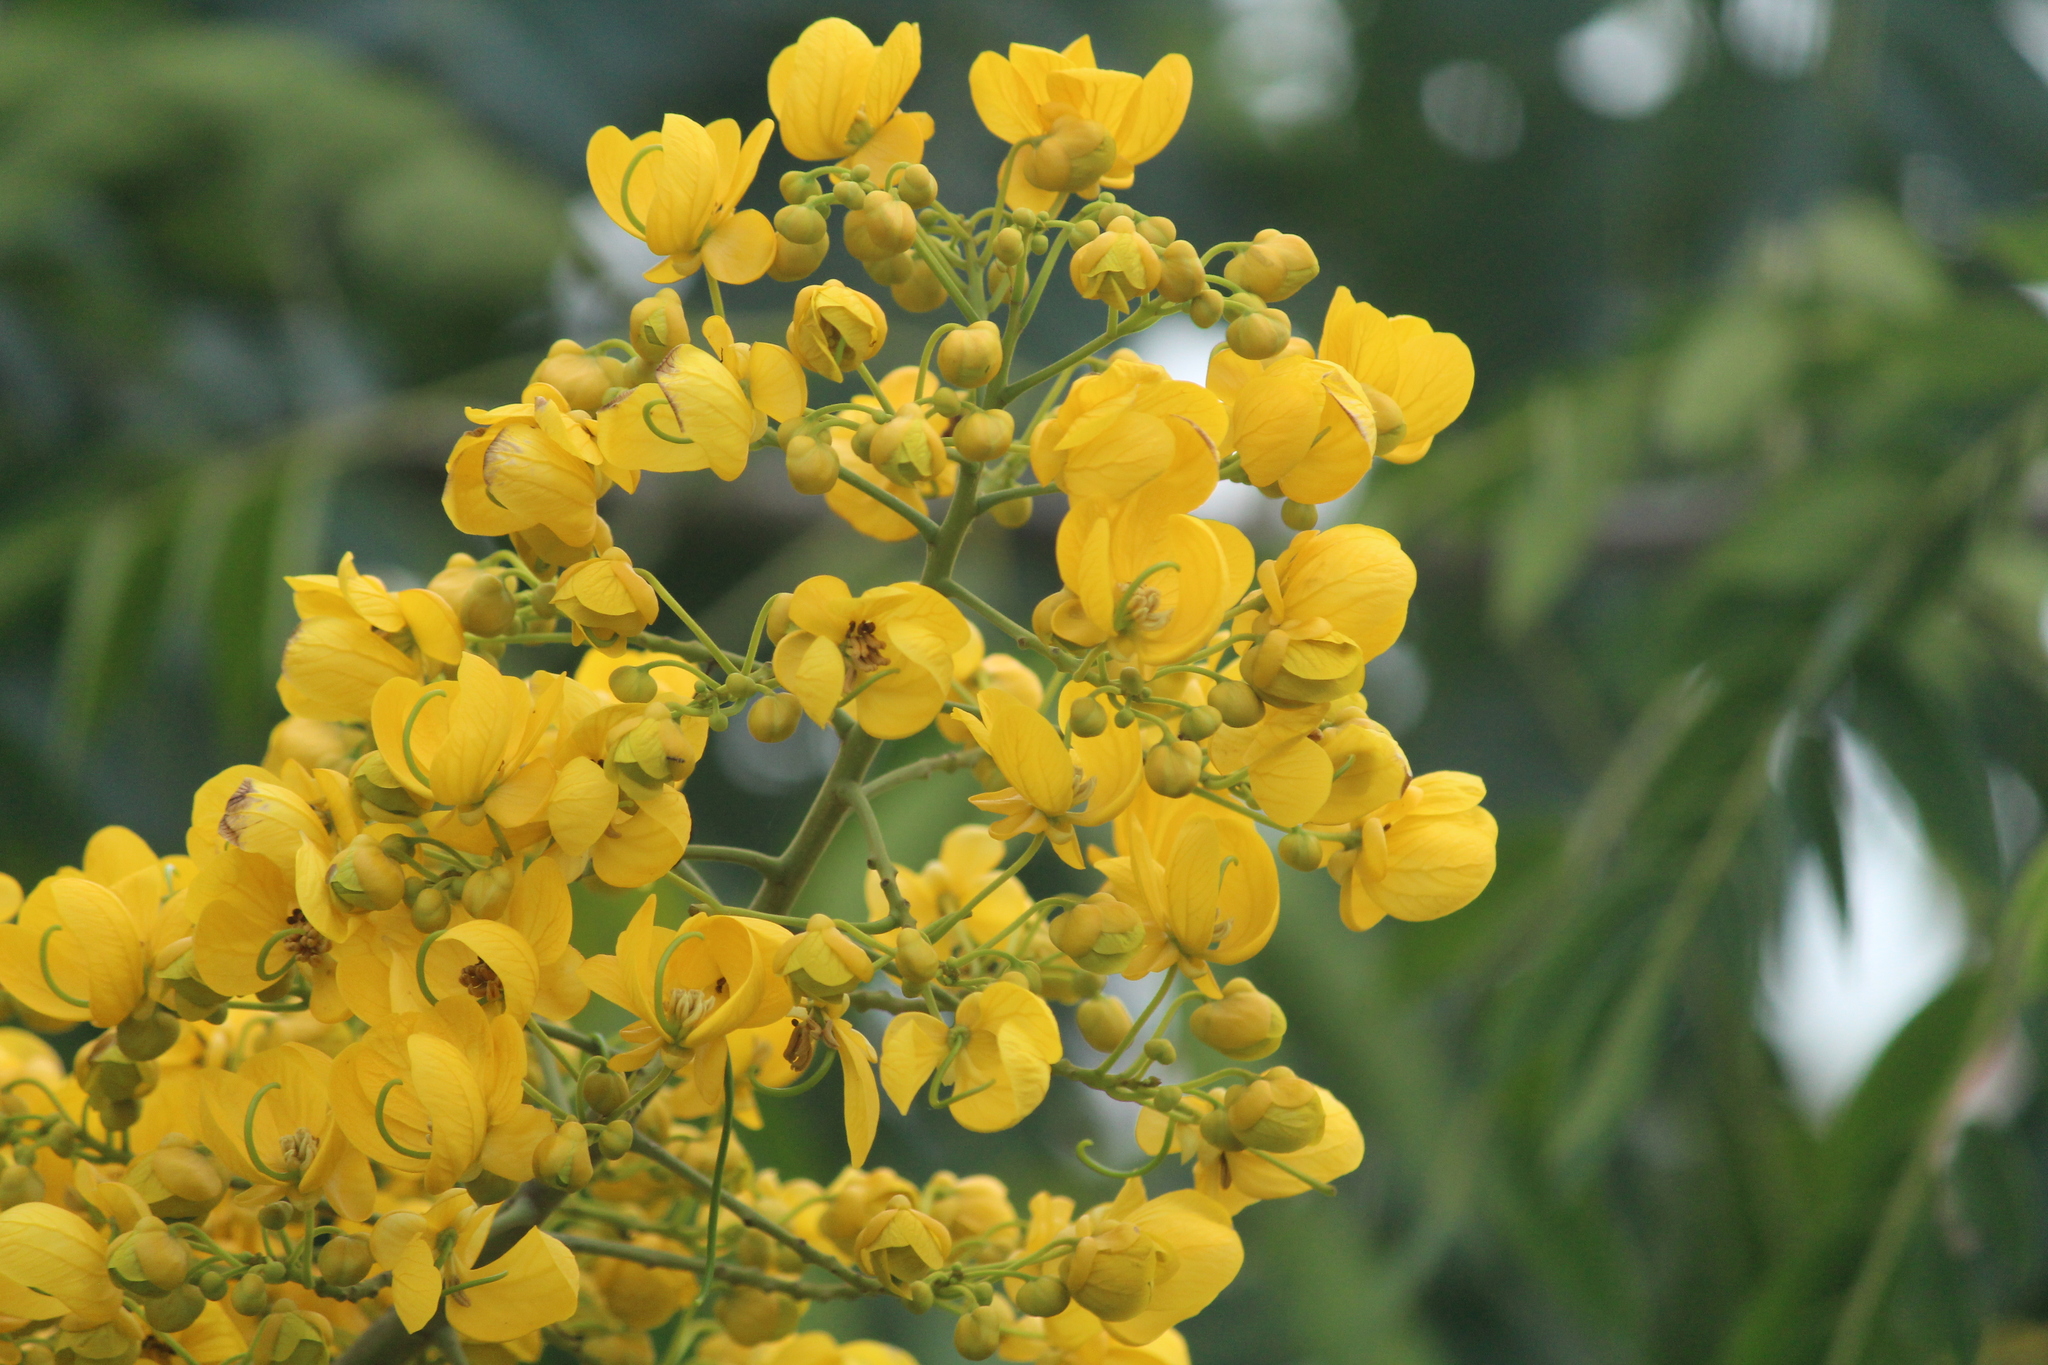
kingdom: Plantae
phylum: Tracheophyta
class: Magnoliopsida
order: Fabales
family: Fabaceae
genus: Senna
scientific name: Senna spectabilis
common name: Casia amarilla
